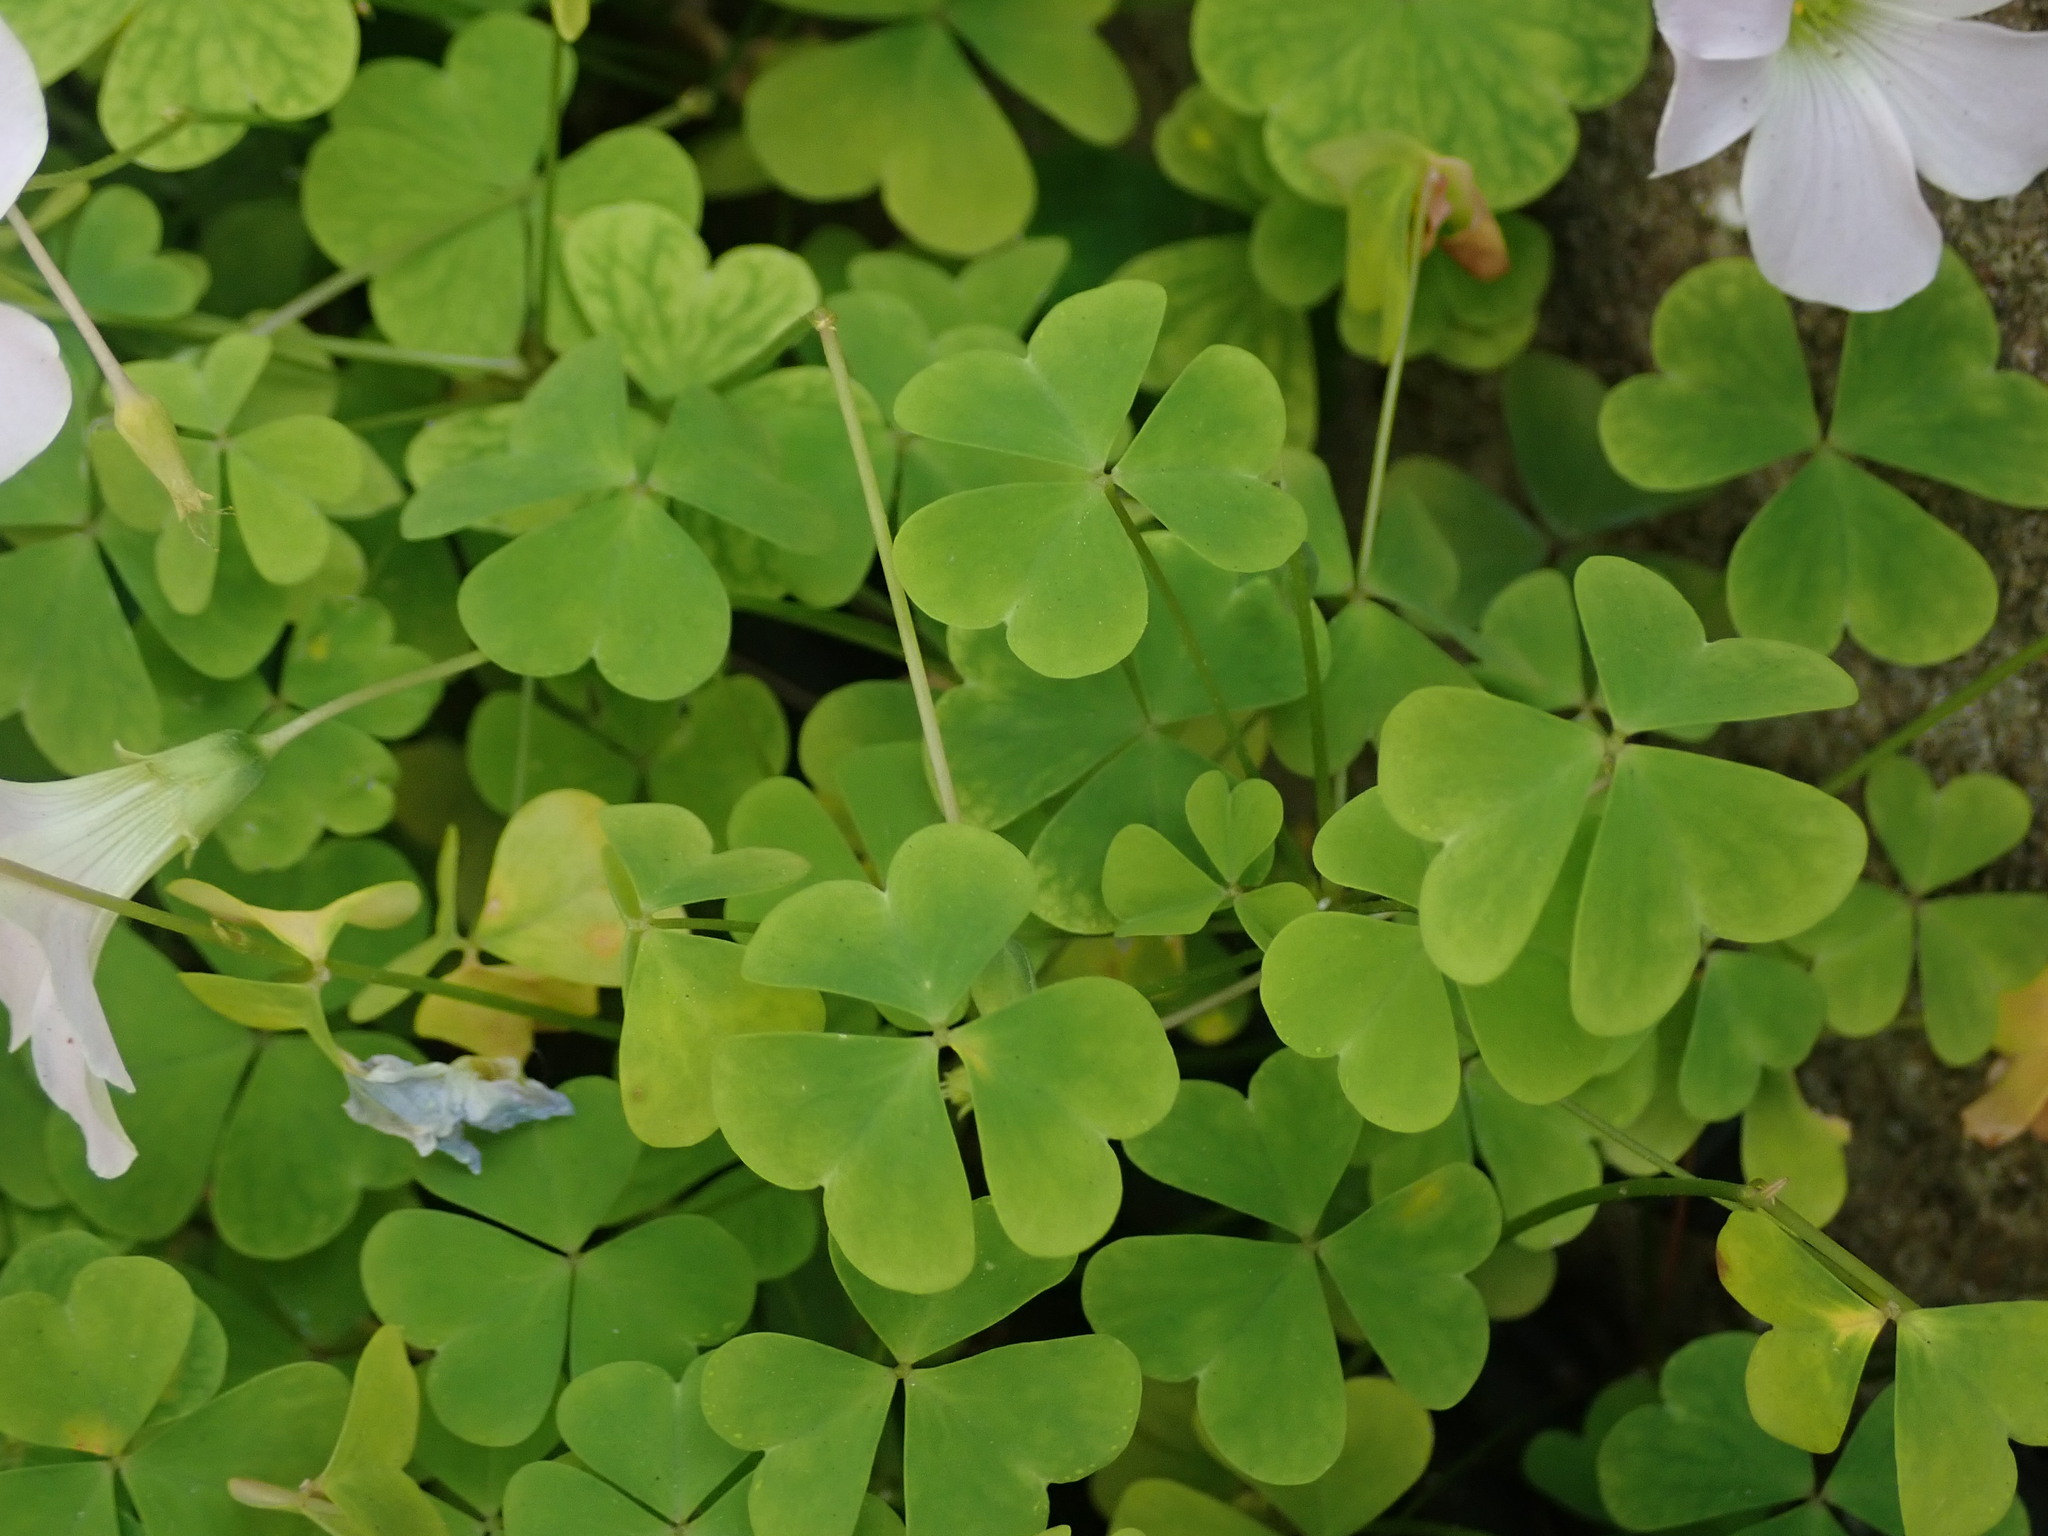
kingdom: Plantae
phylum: Tracheophyta
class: Magnoliopsida
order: Oxalidales
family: Oxalidaceae
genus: Oxalis
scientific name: Oxalis incarnata
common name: Pale pink-sorrel
